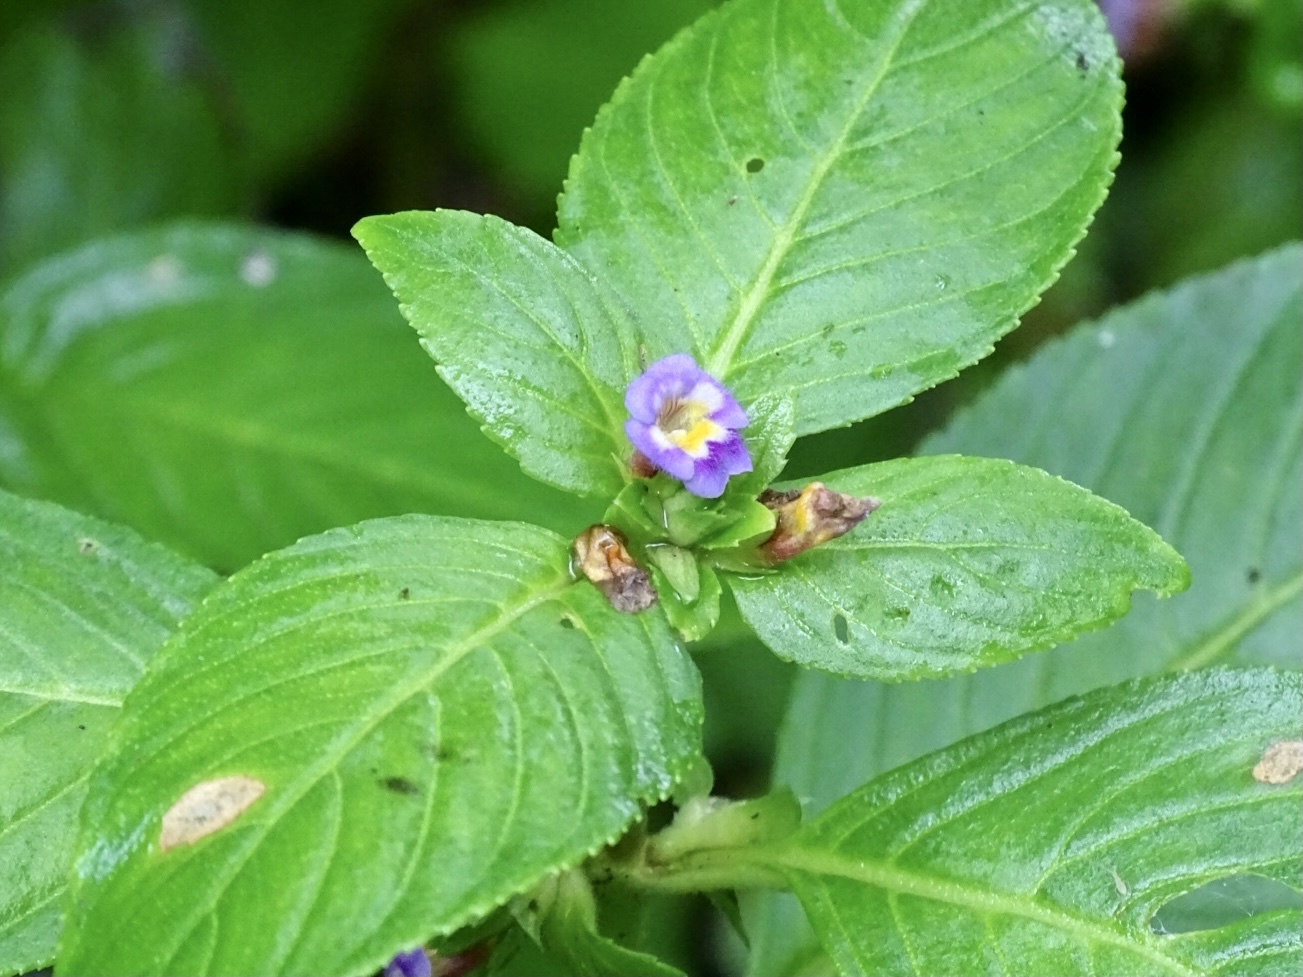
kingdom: Plantae
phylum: Tracheophyta
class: Magnoliopsida
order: Lamiales
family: Plantaginaceae
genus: Limnophila
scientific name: Limnophila rugosa
